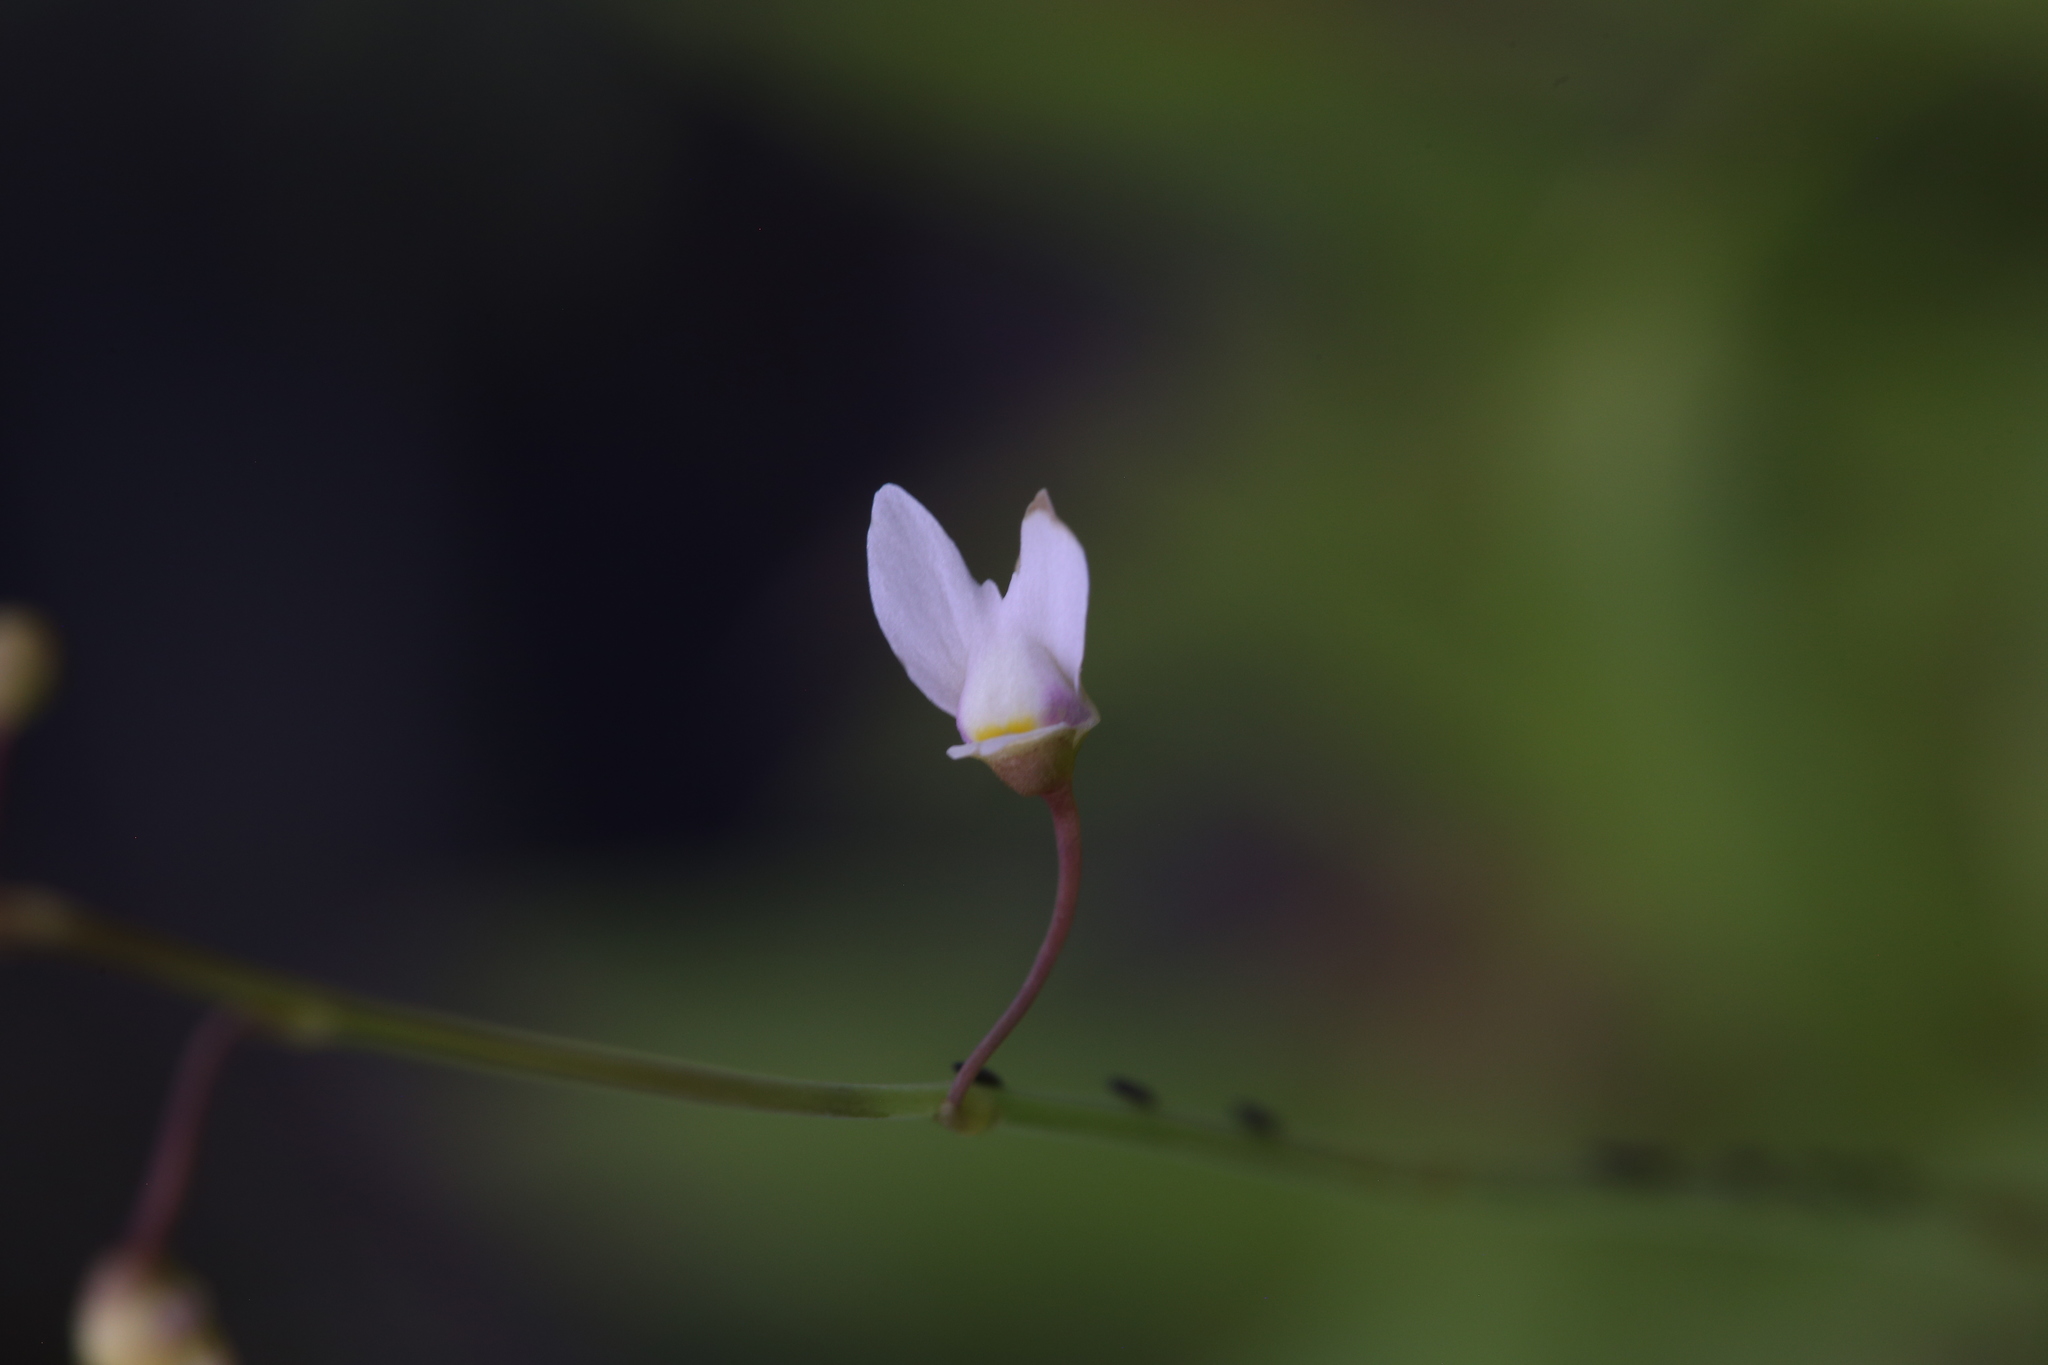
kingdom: Plantae
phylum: Tracheophyta
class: Magnoliopsida
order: Lamiales
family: Lentibulariaceae
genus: Utricularia
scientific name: Utricularia limosa
